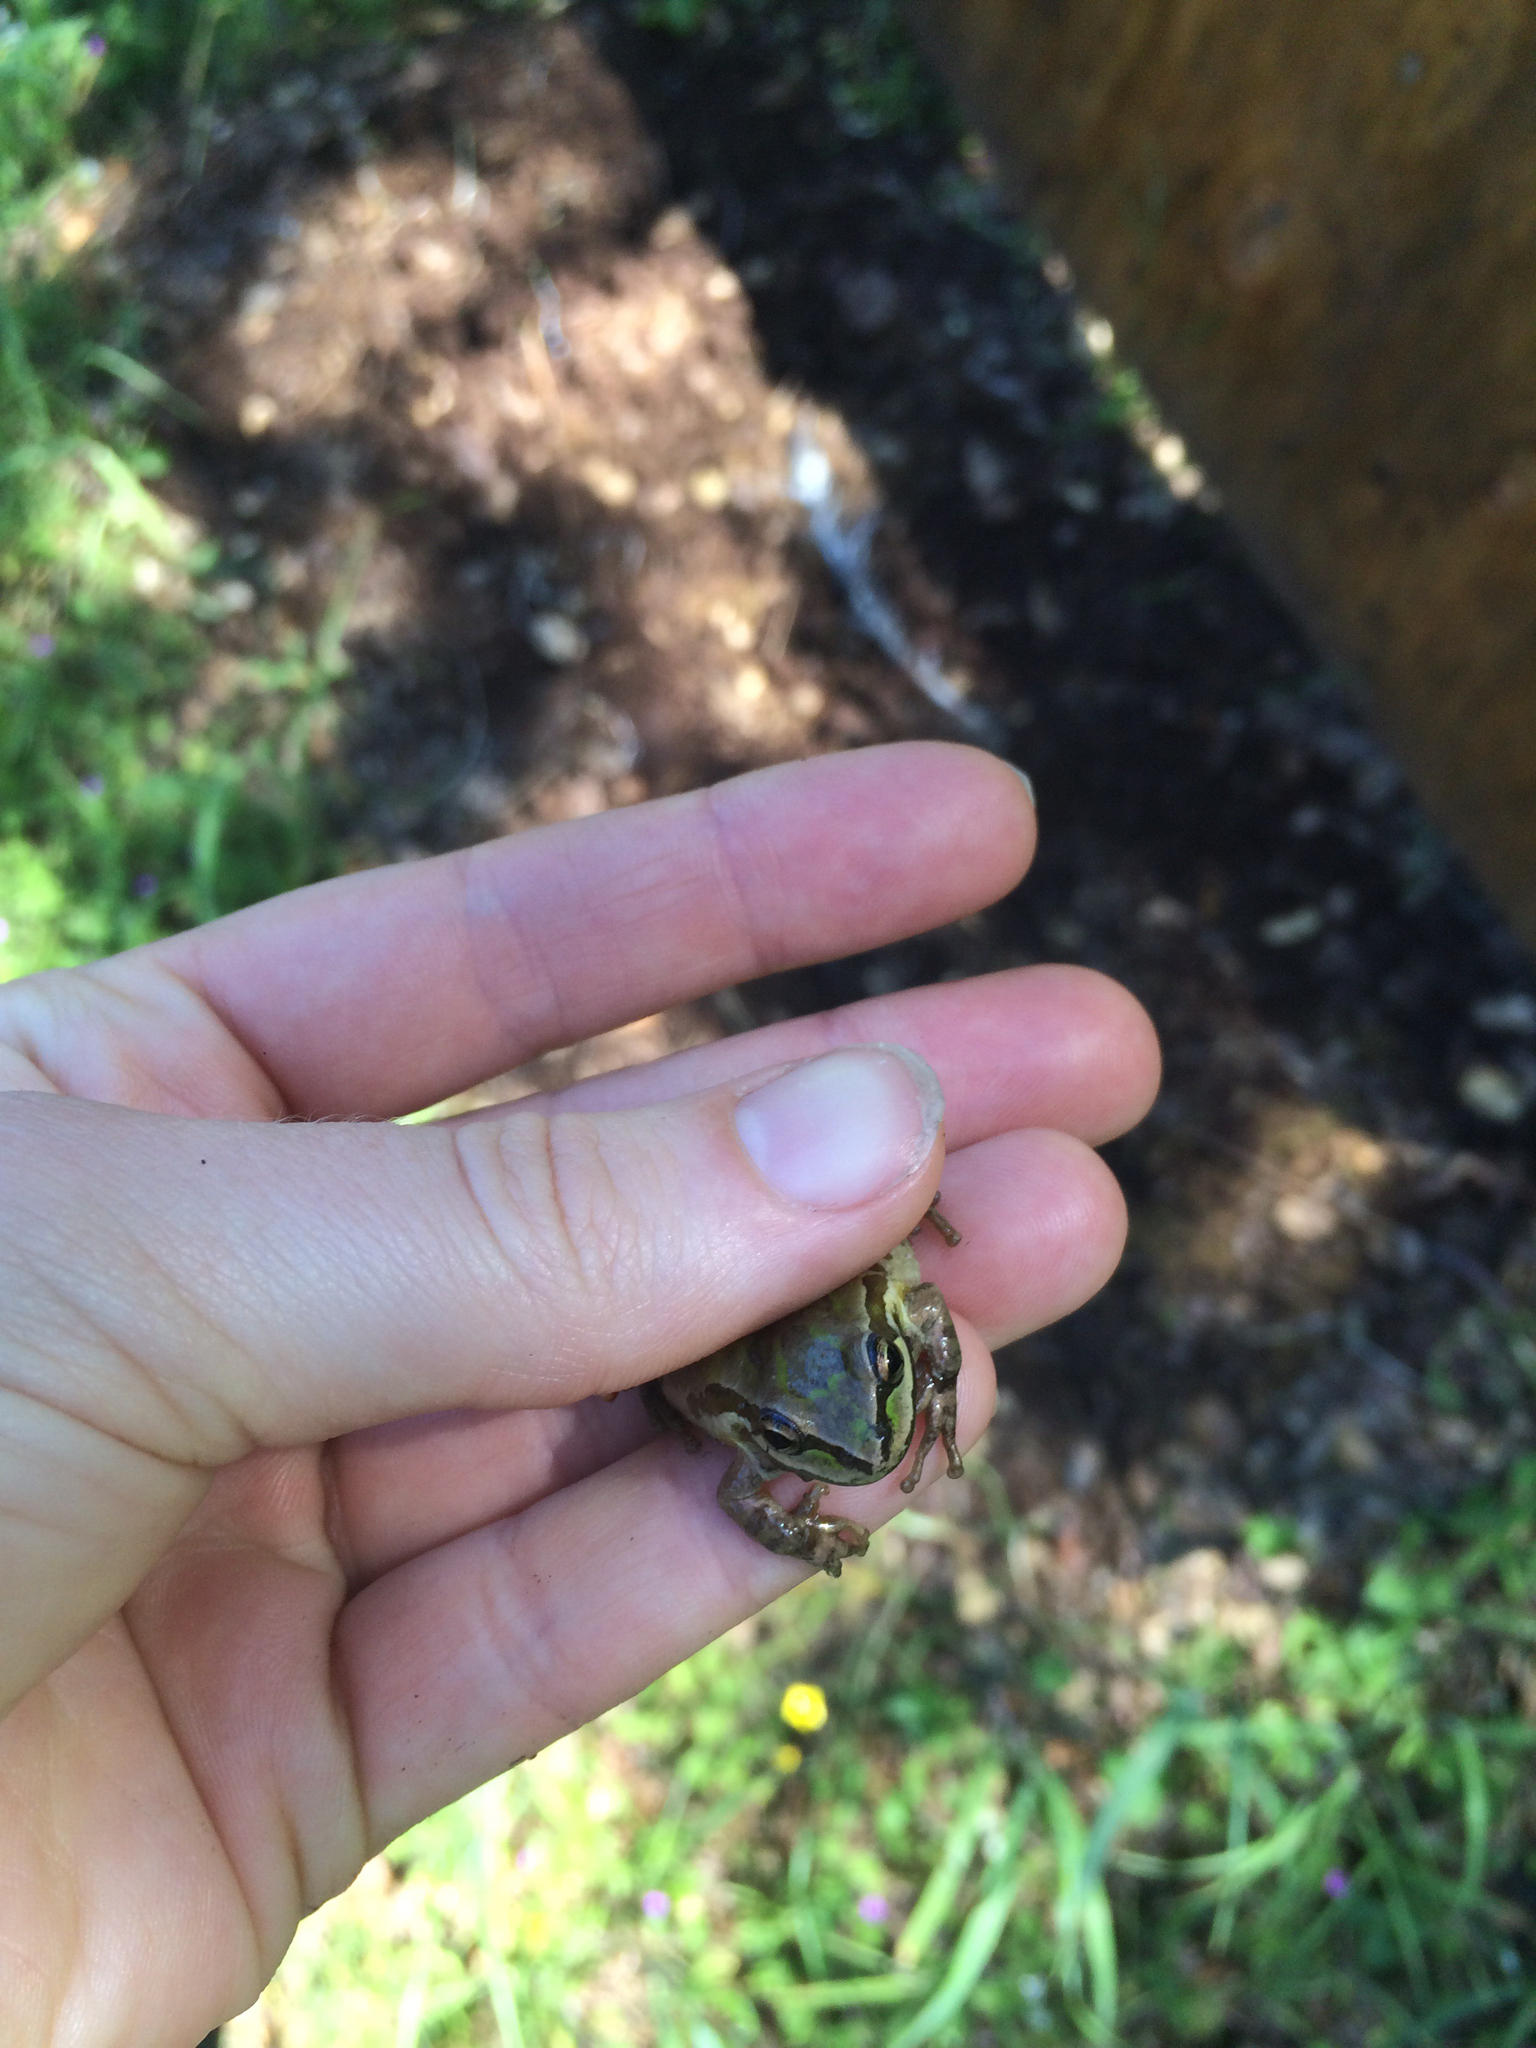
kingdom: Animalia
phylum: Chordata
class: Amphibia
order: Anura
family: Hylidae
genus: Pseudacris
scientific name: Pseudacris regilla
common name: Pacific chorus frog
